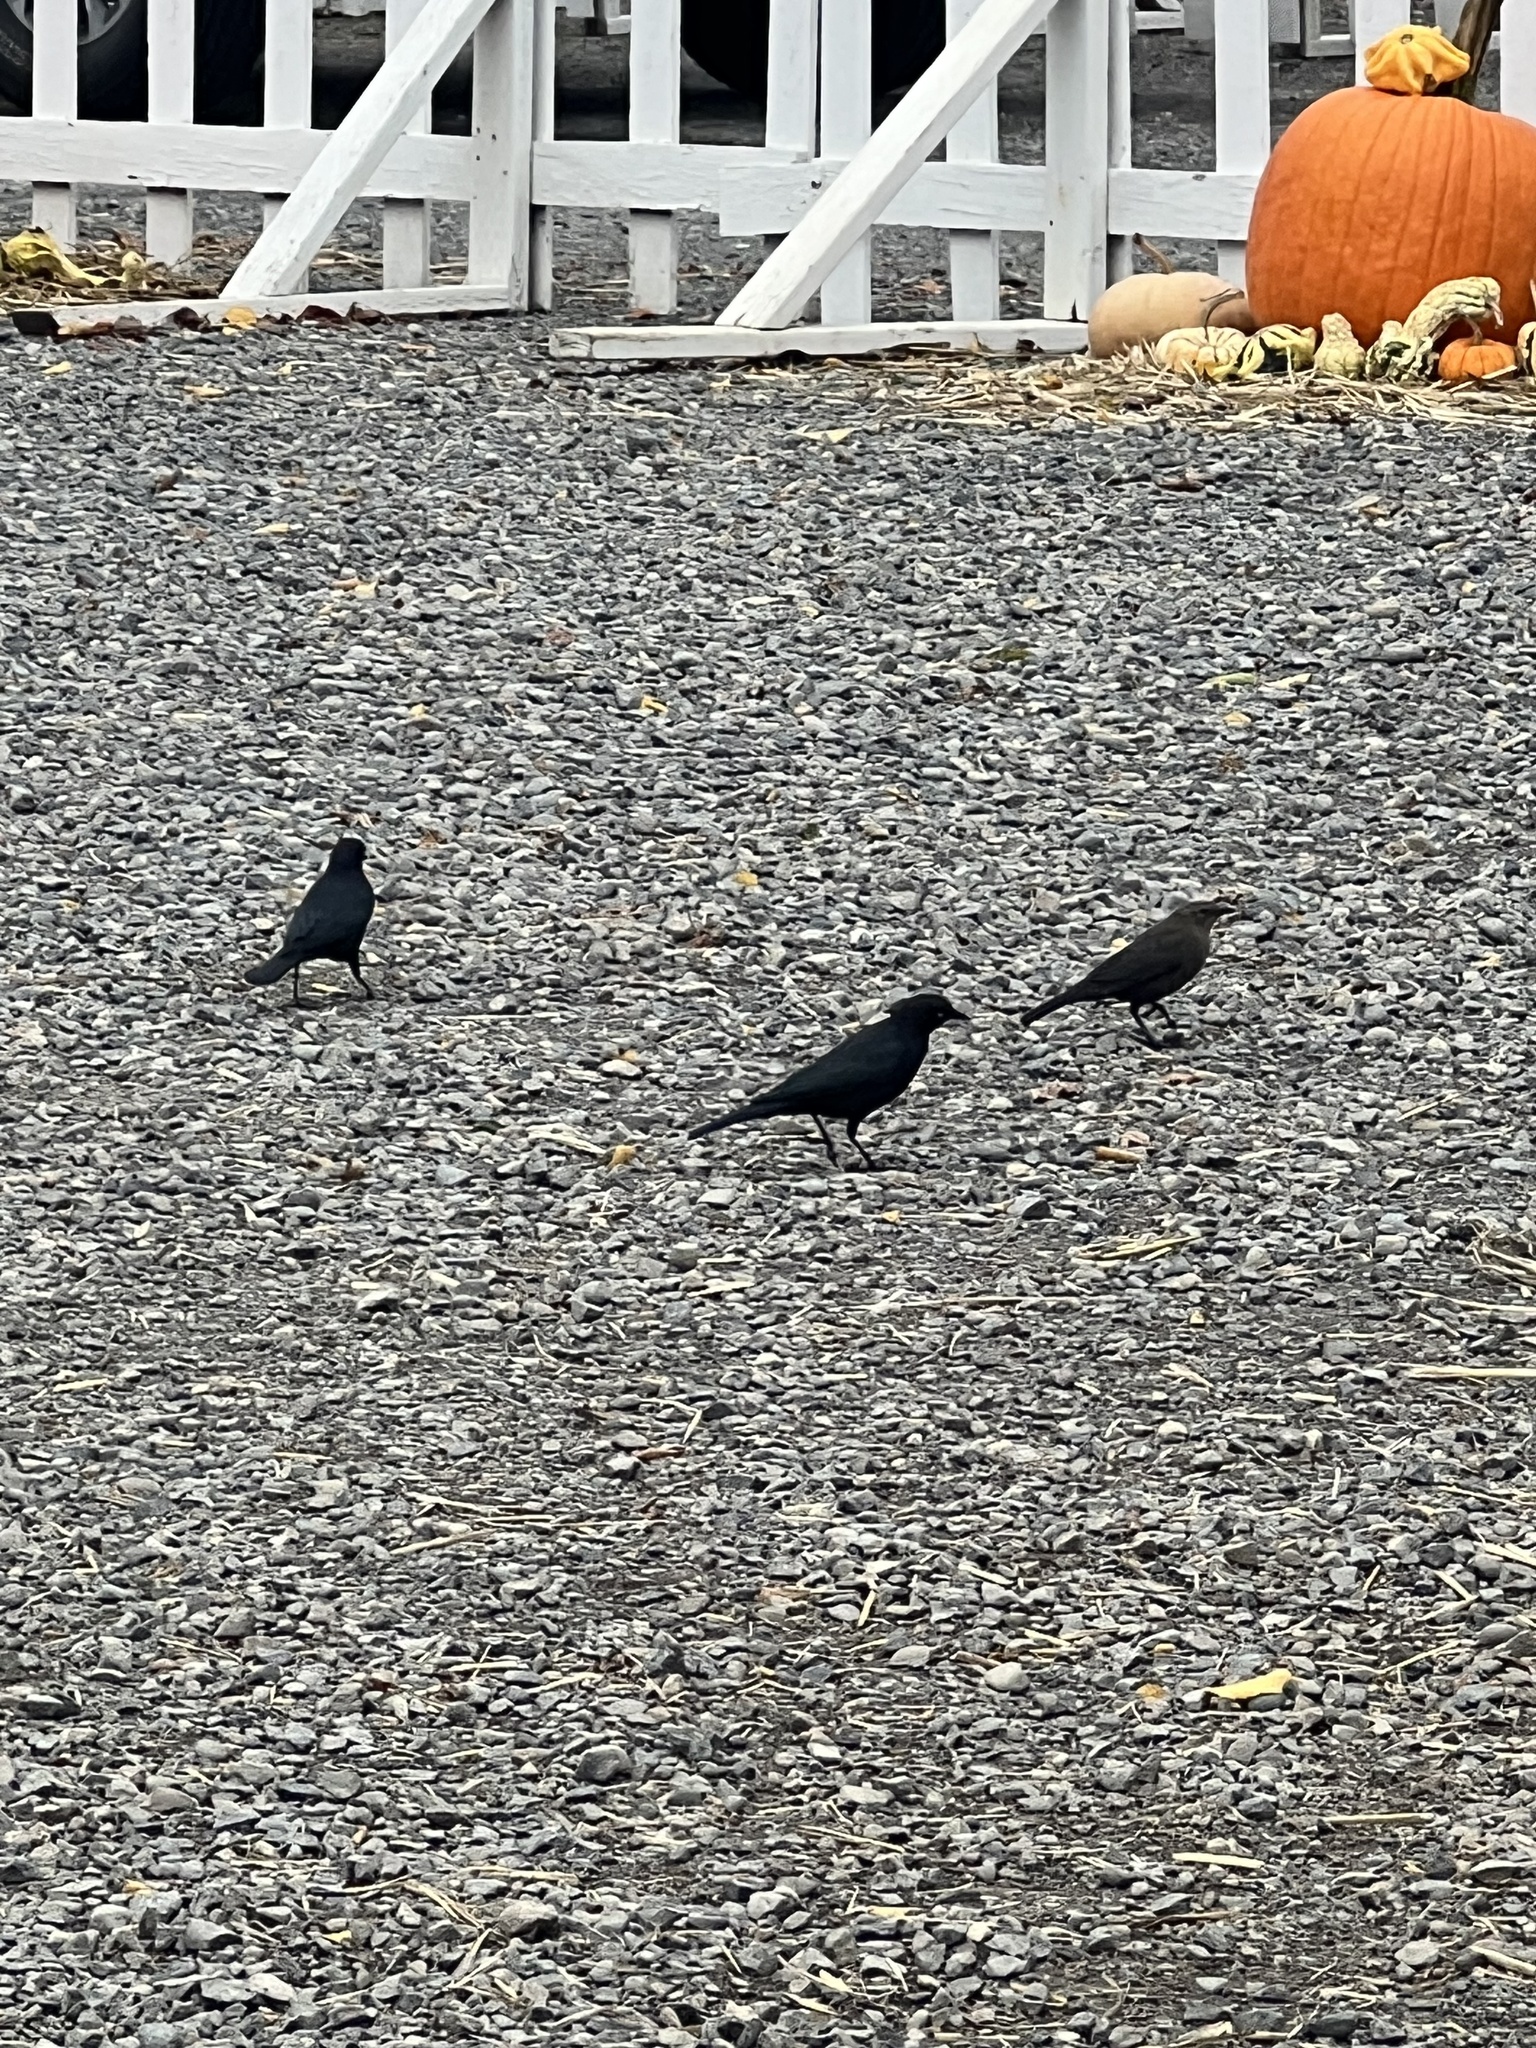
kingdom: Animalia
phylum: Chordata
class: Aves
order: Passeriformes
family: Icteridae
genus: Euphagus
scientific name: Euphagus cyanocephalus
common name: Brewer's blackbird
